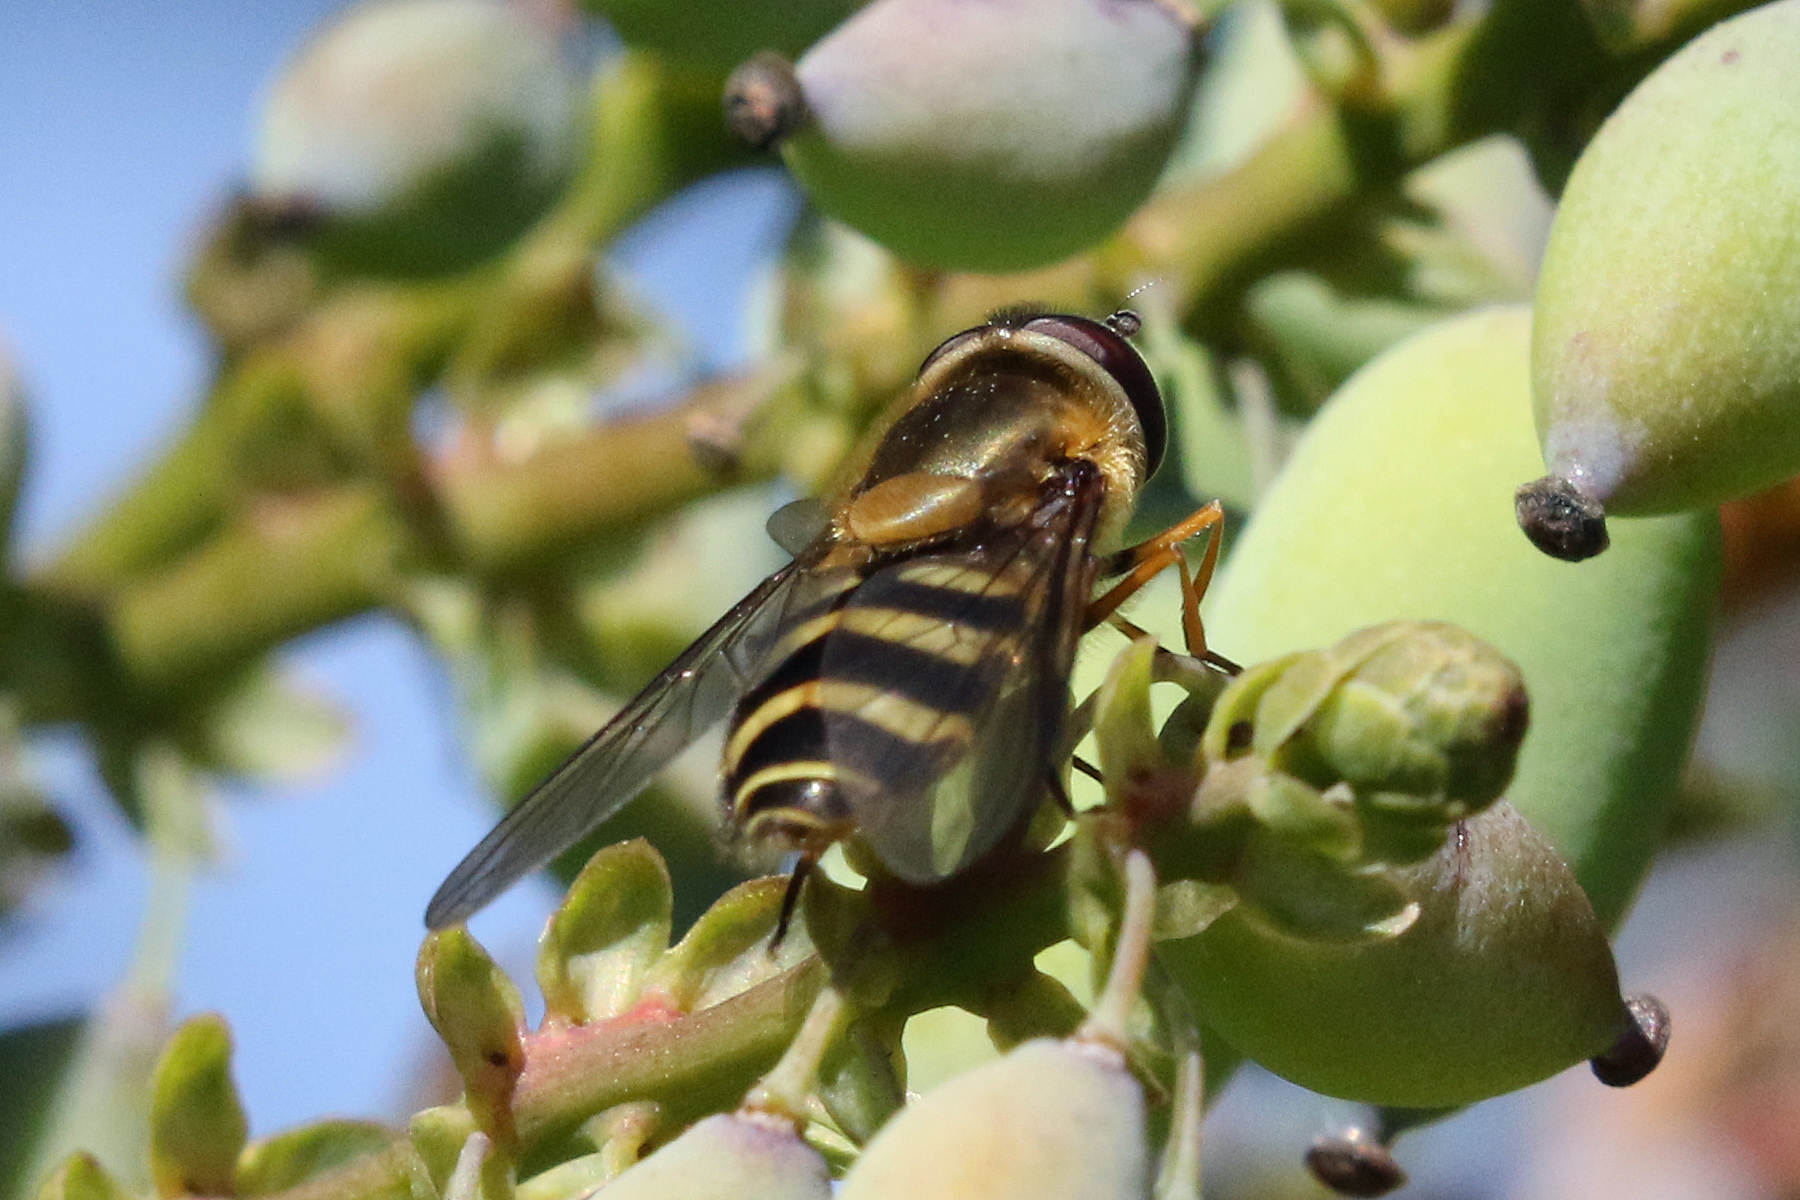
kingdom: Animalia
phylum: Arthropoda
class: Insecta
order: Diptera
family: Syrphidae
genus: Syrphus
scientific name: Syrphus torvus
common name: Hairy-eyed flower fly
